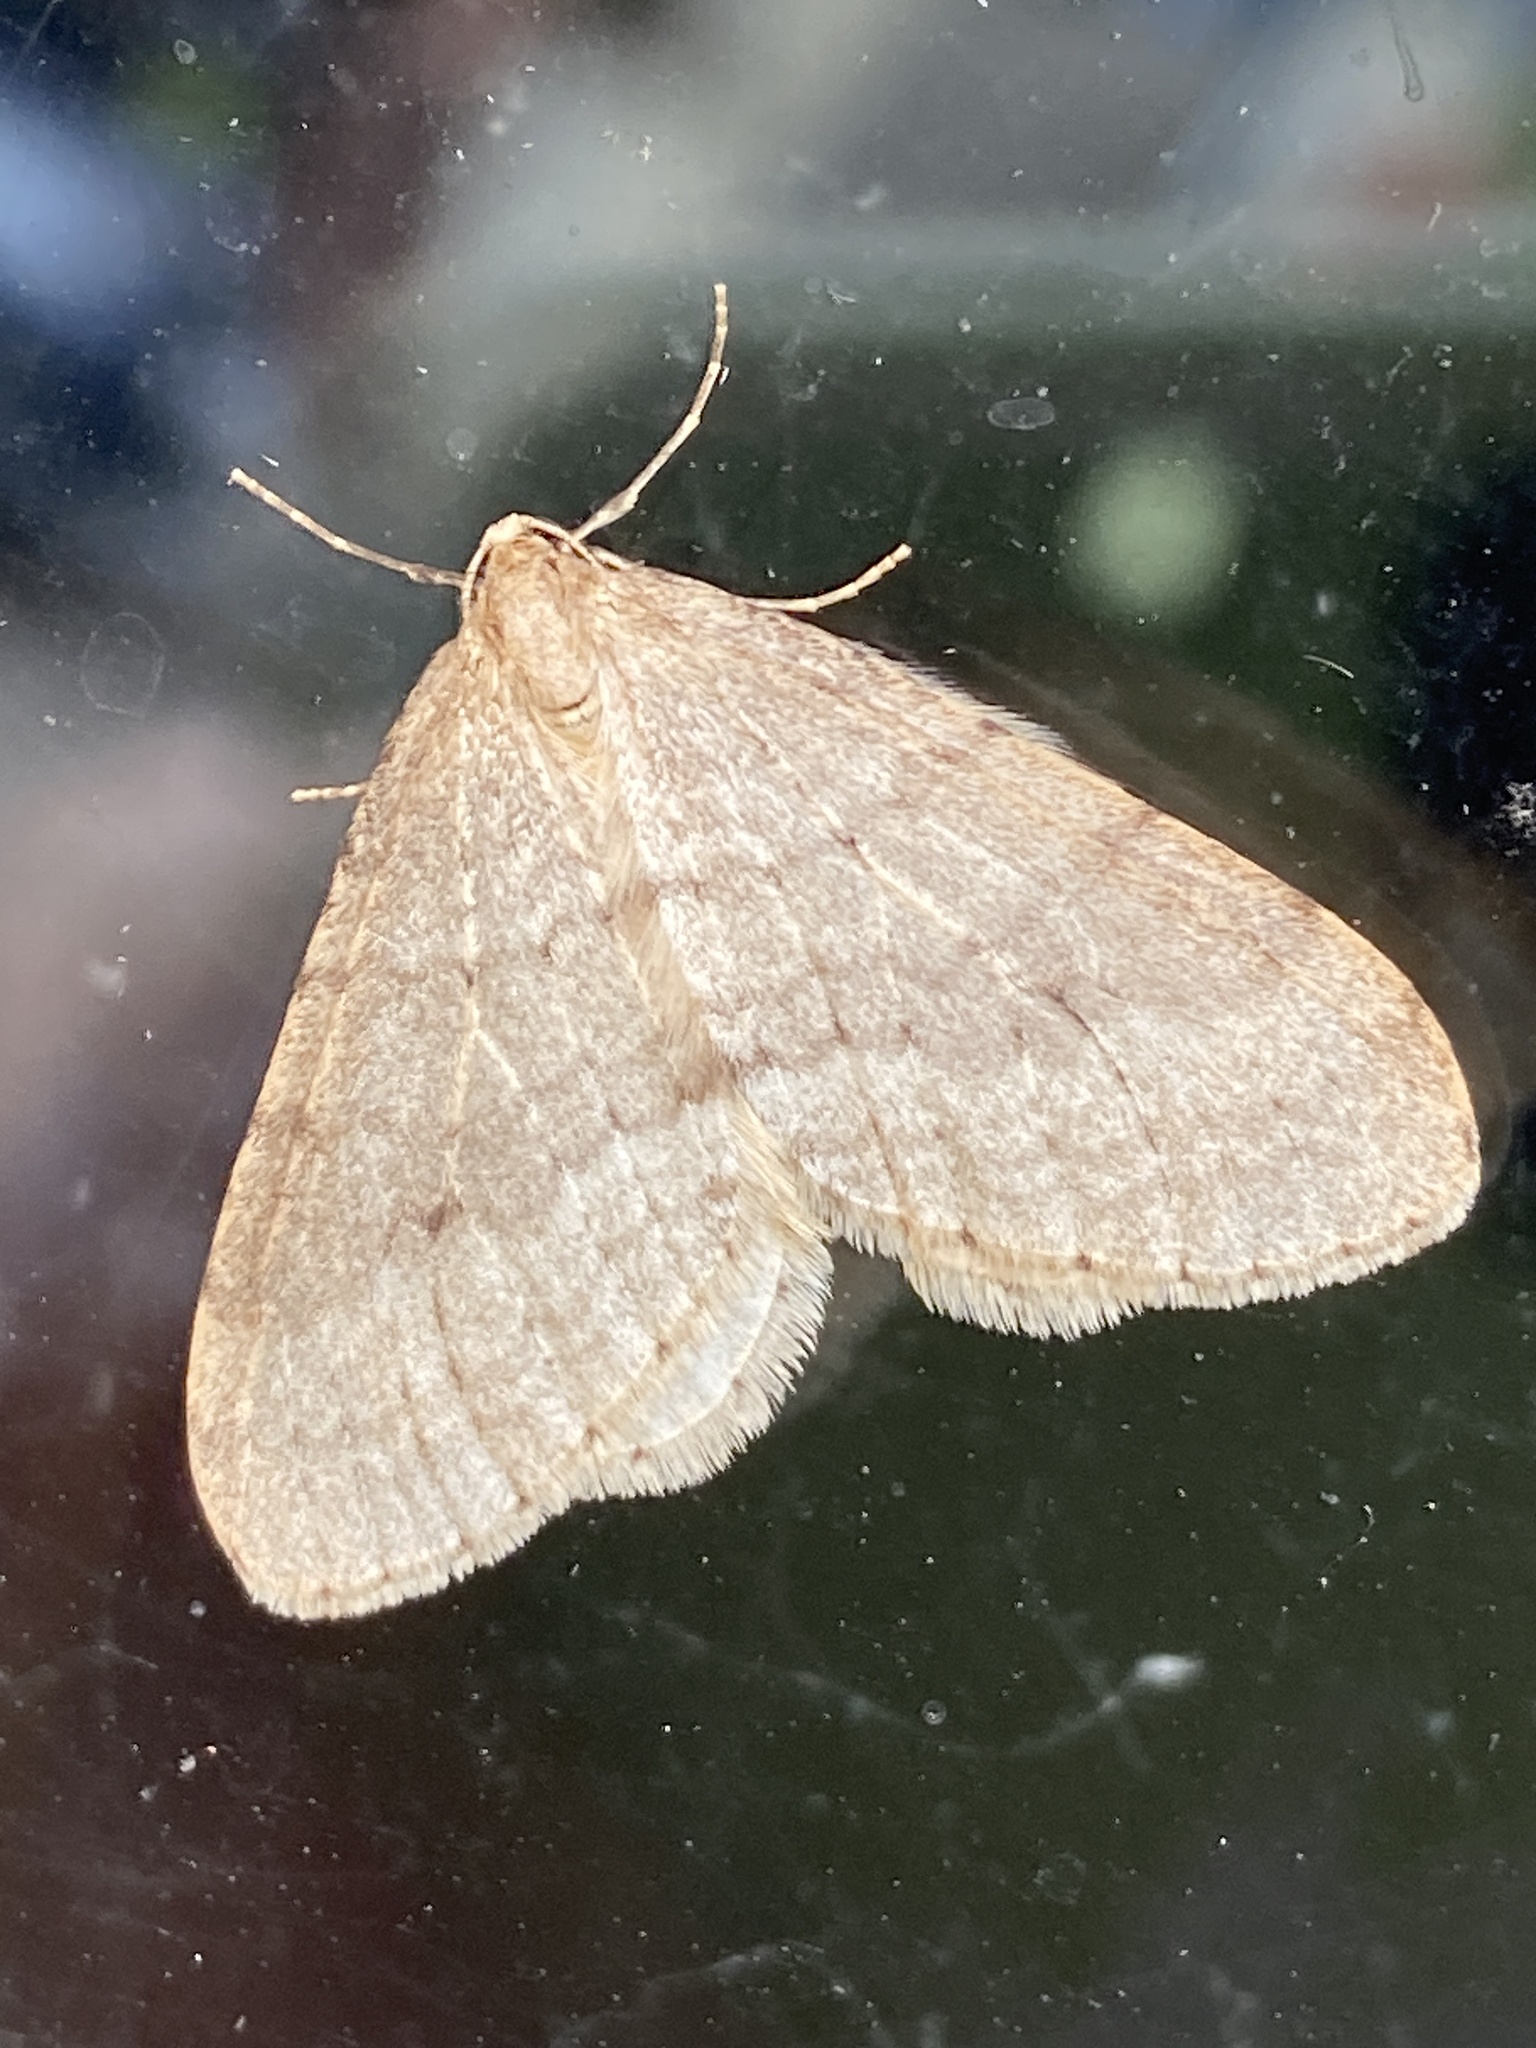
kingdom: Animalia
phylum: Arthropoda
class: Insecta
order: Lepidoptera
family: Geometridae
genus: Operophtera
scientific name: Operophtera brumata
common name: Winter moth
